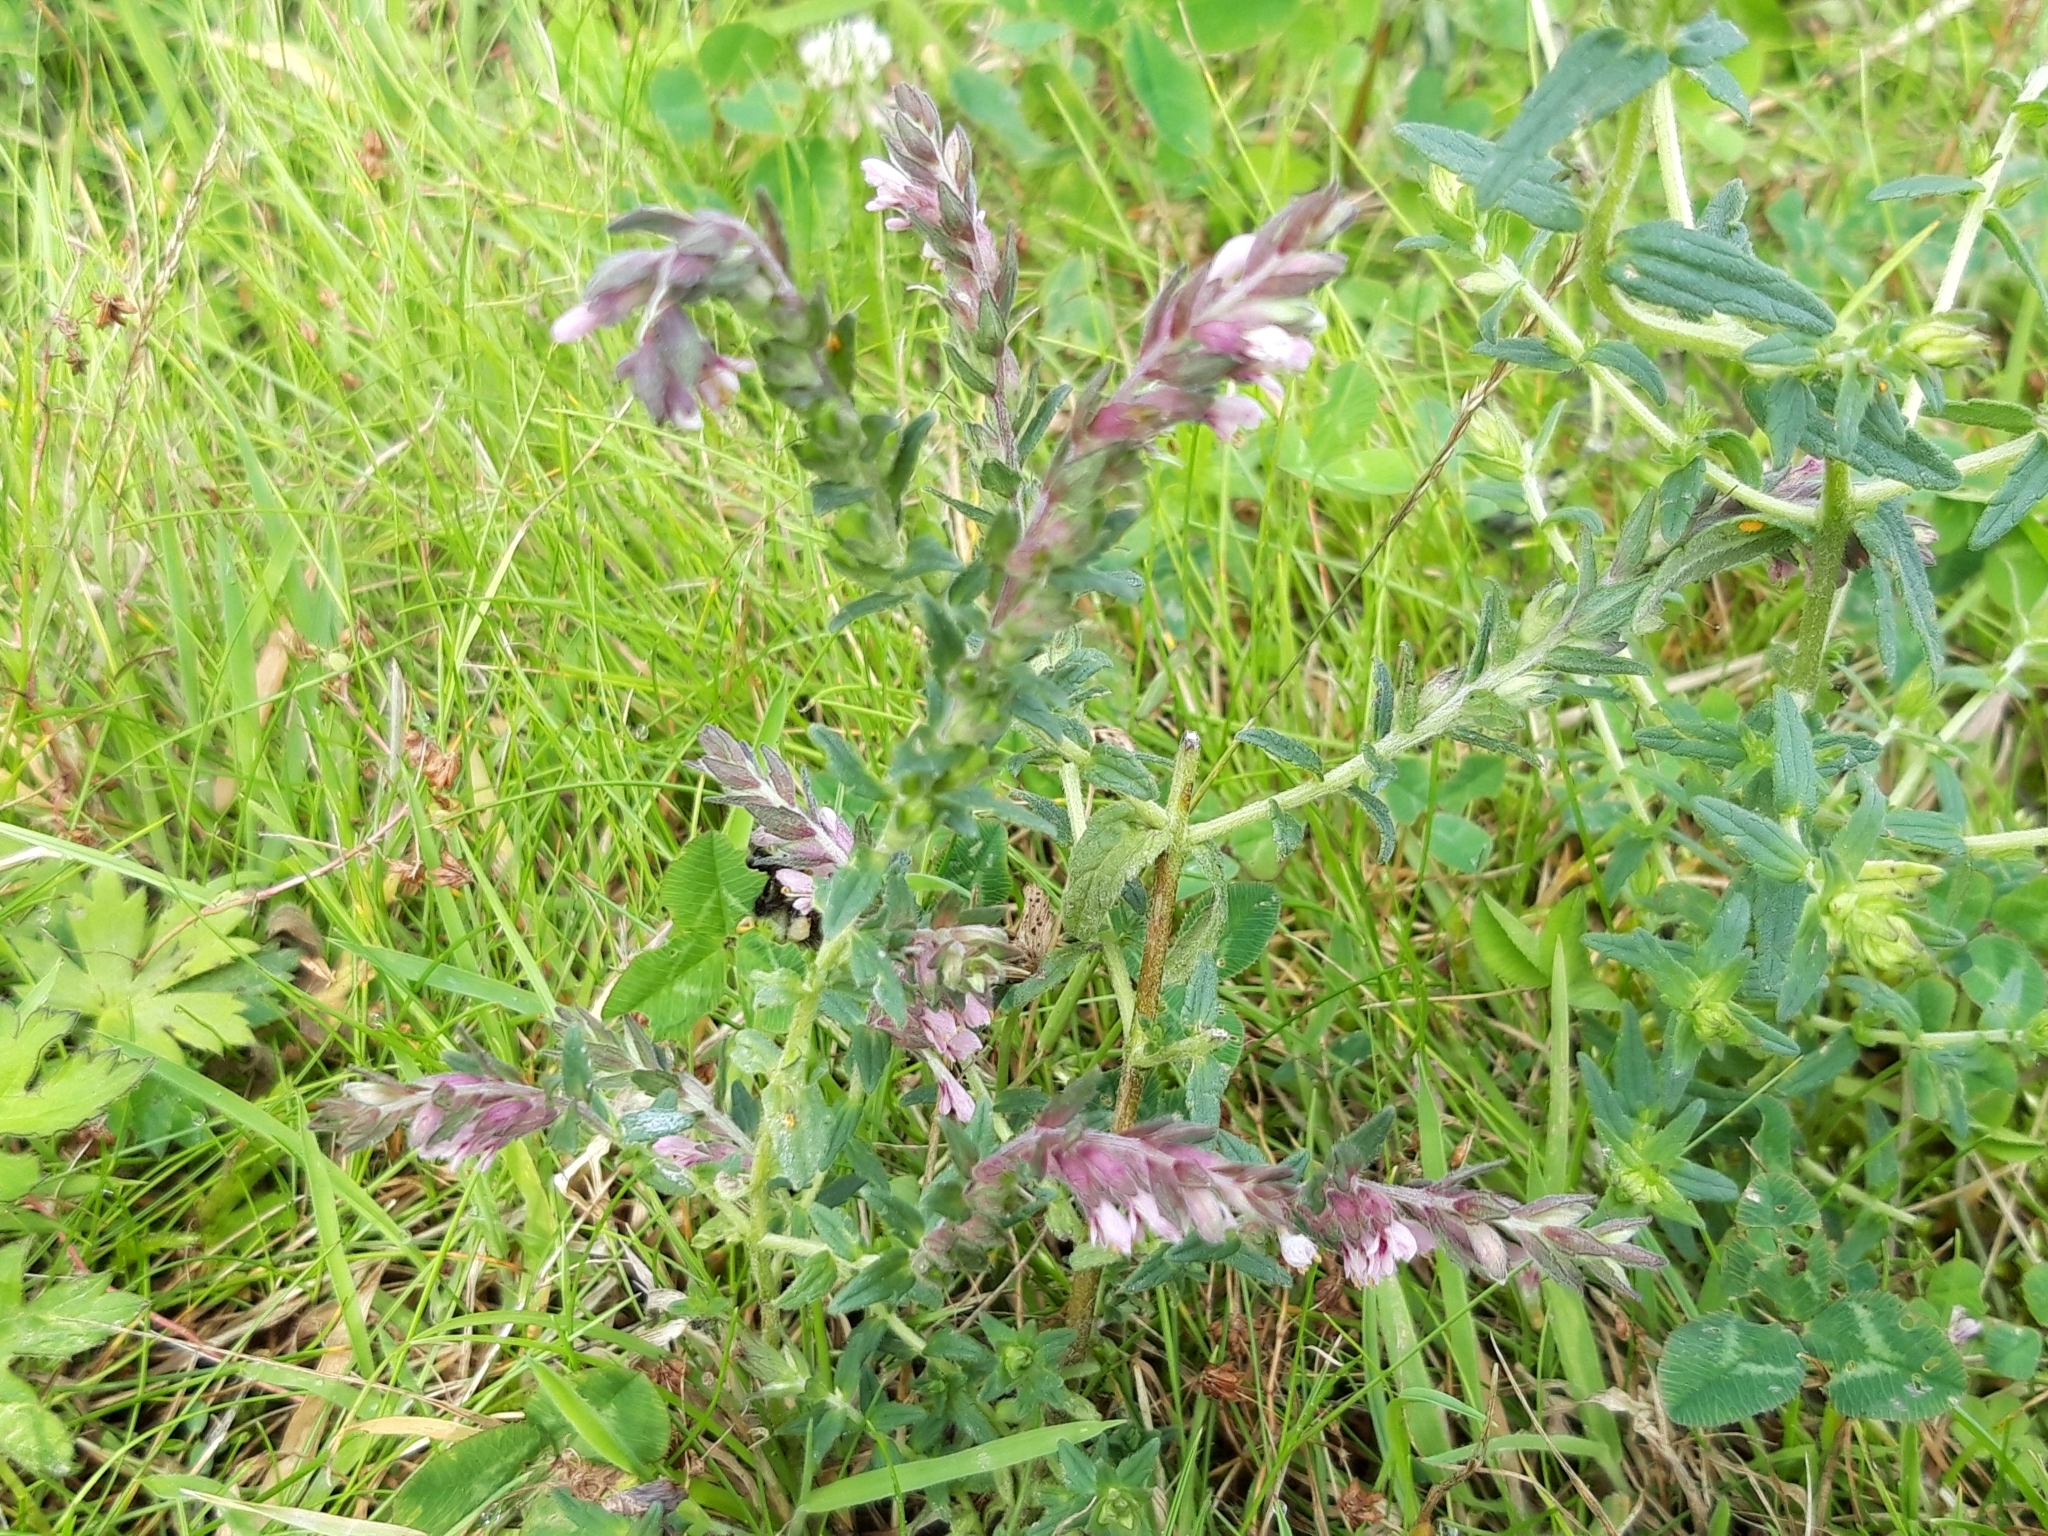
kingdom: Plantae
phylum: Tracheophyta
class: Magnoliopsida
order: Lamiales
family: Orobanchaceae
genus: Odontites
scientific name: Odontites vernus
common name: Red bartsia
